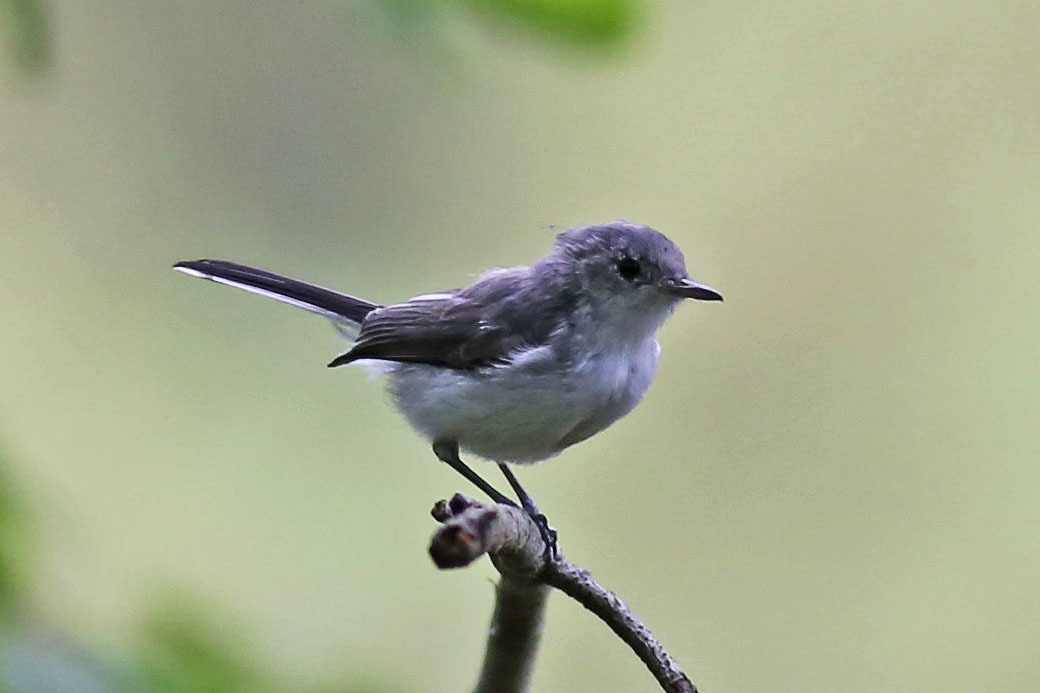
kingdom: Animalia
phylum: Chordata
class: Aves
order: Passeriformes
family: Polioptilidae
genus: Polioptila
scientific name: Polioptila caerulea
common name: Blue-gray gnatcatcher
